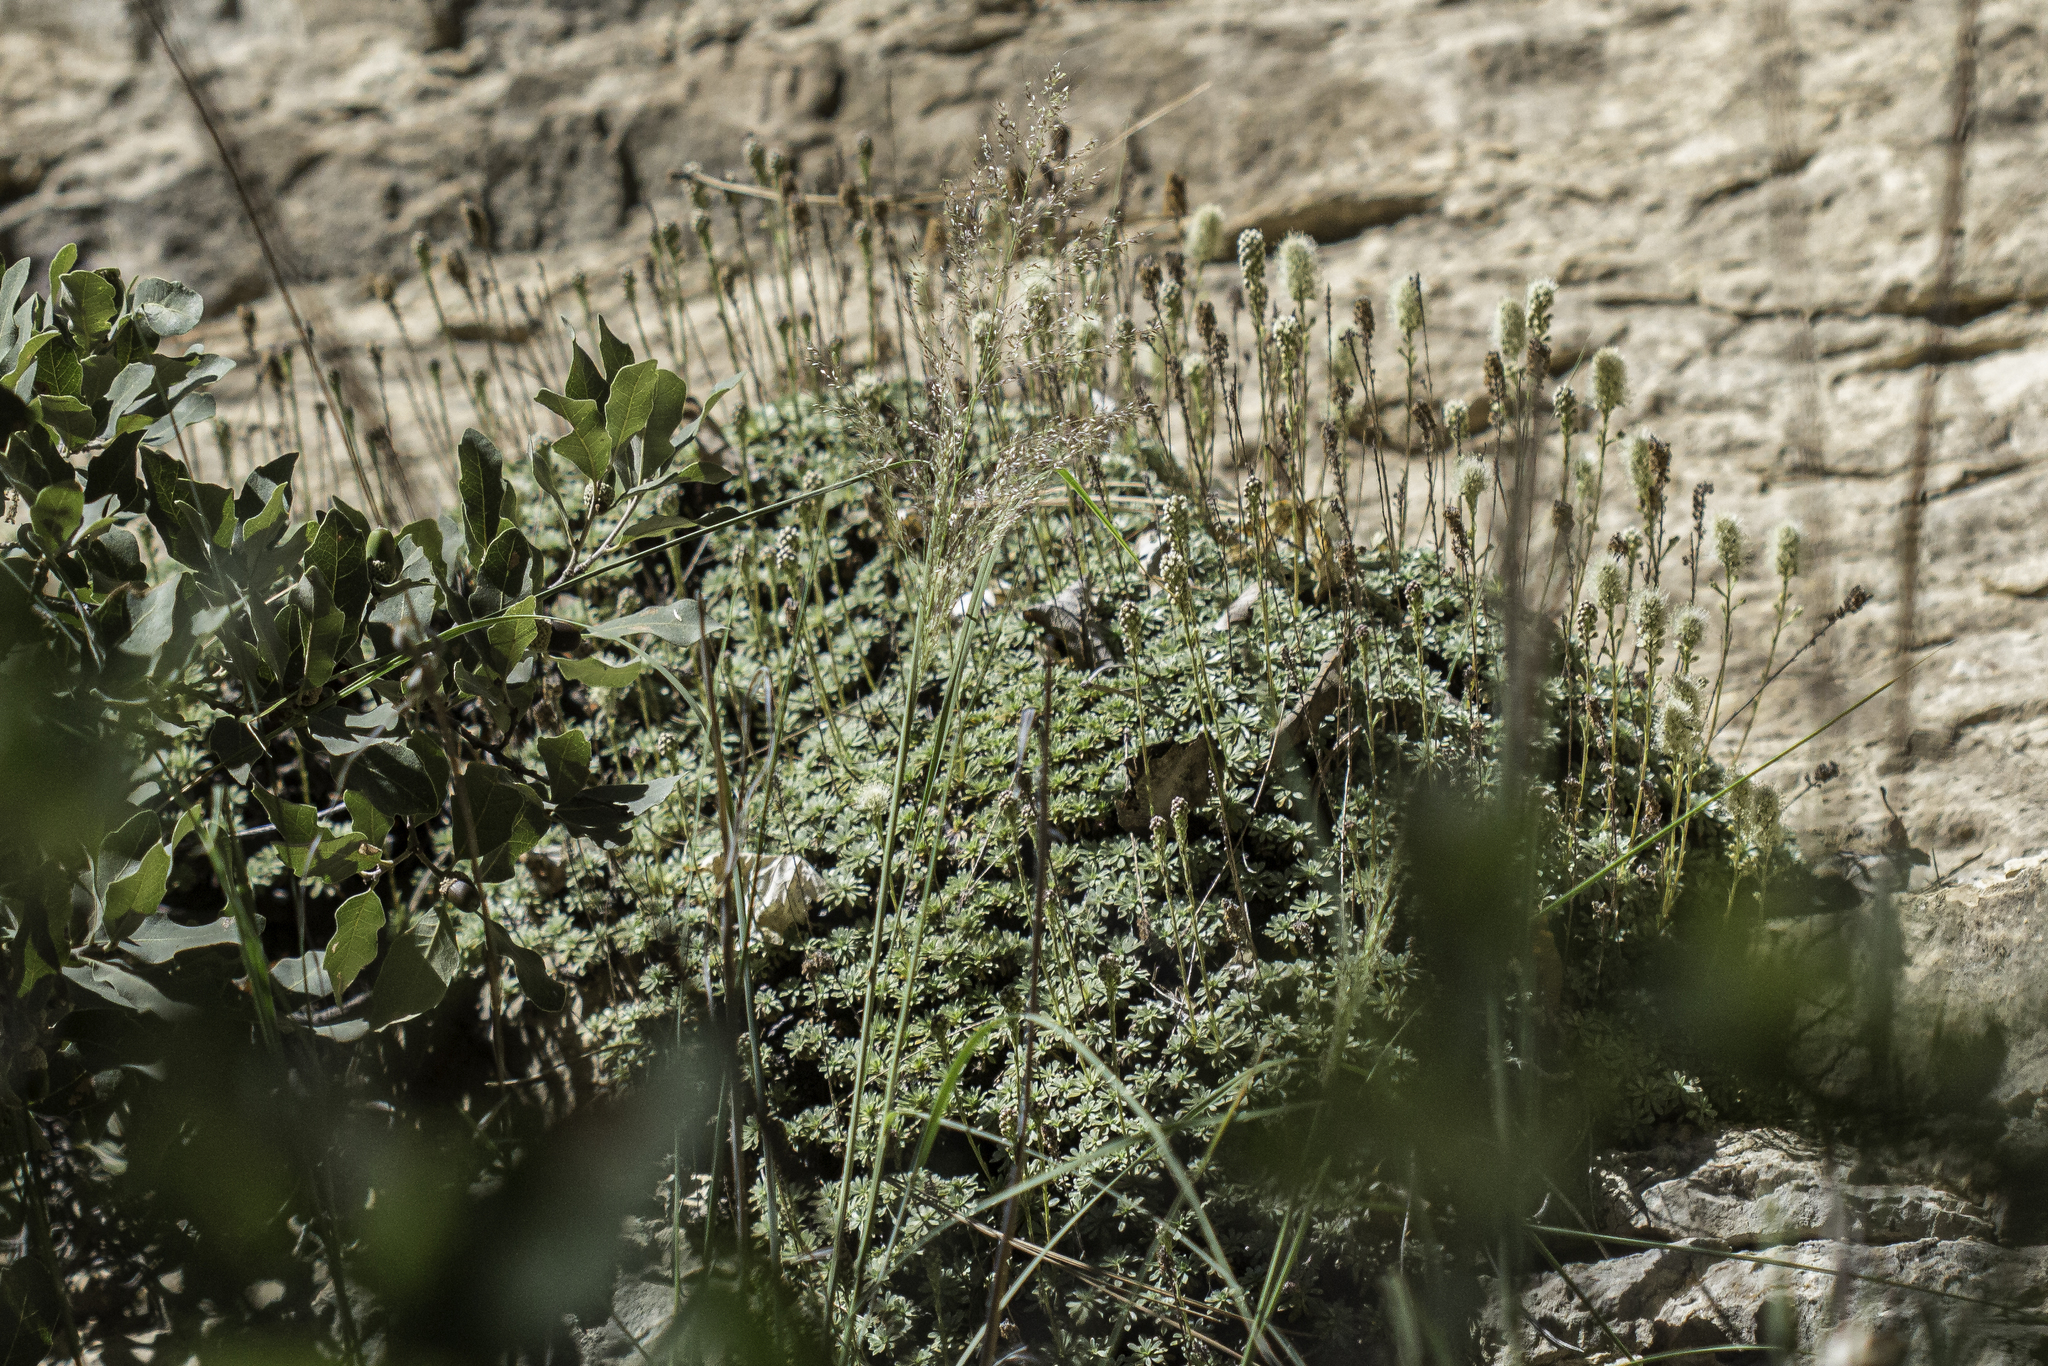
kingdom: Plantae
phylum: Tracheophyta
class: Magnoliopsida
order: Rosales
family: Rosaceae
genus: Petrophytum
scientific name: Petrophytum caespitosum
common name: Mat rockspirea
